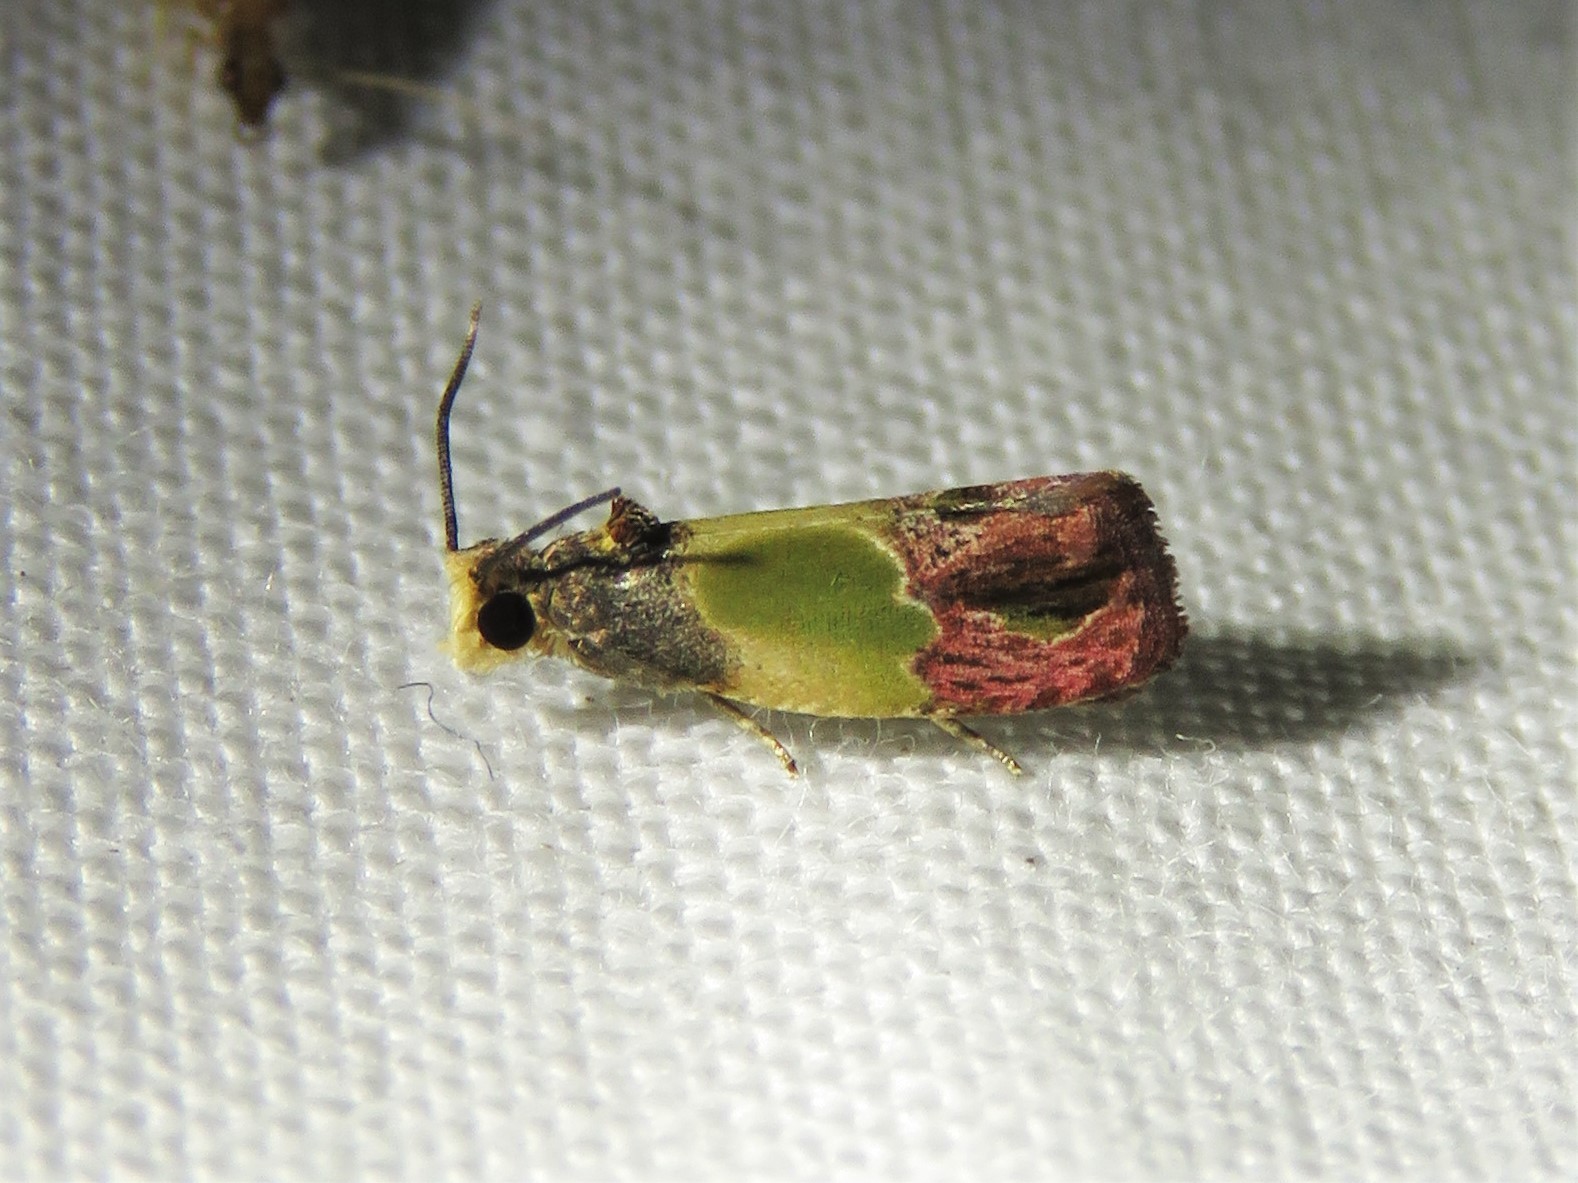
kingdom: Animalia
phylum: Arthropoda
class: Insecta
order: Lepidoptera
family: Tortricidae
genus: Eumarozia
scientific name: Eumarozia malachitana
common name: Sculptured moth
